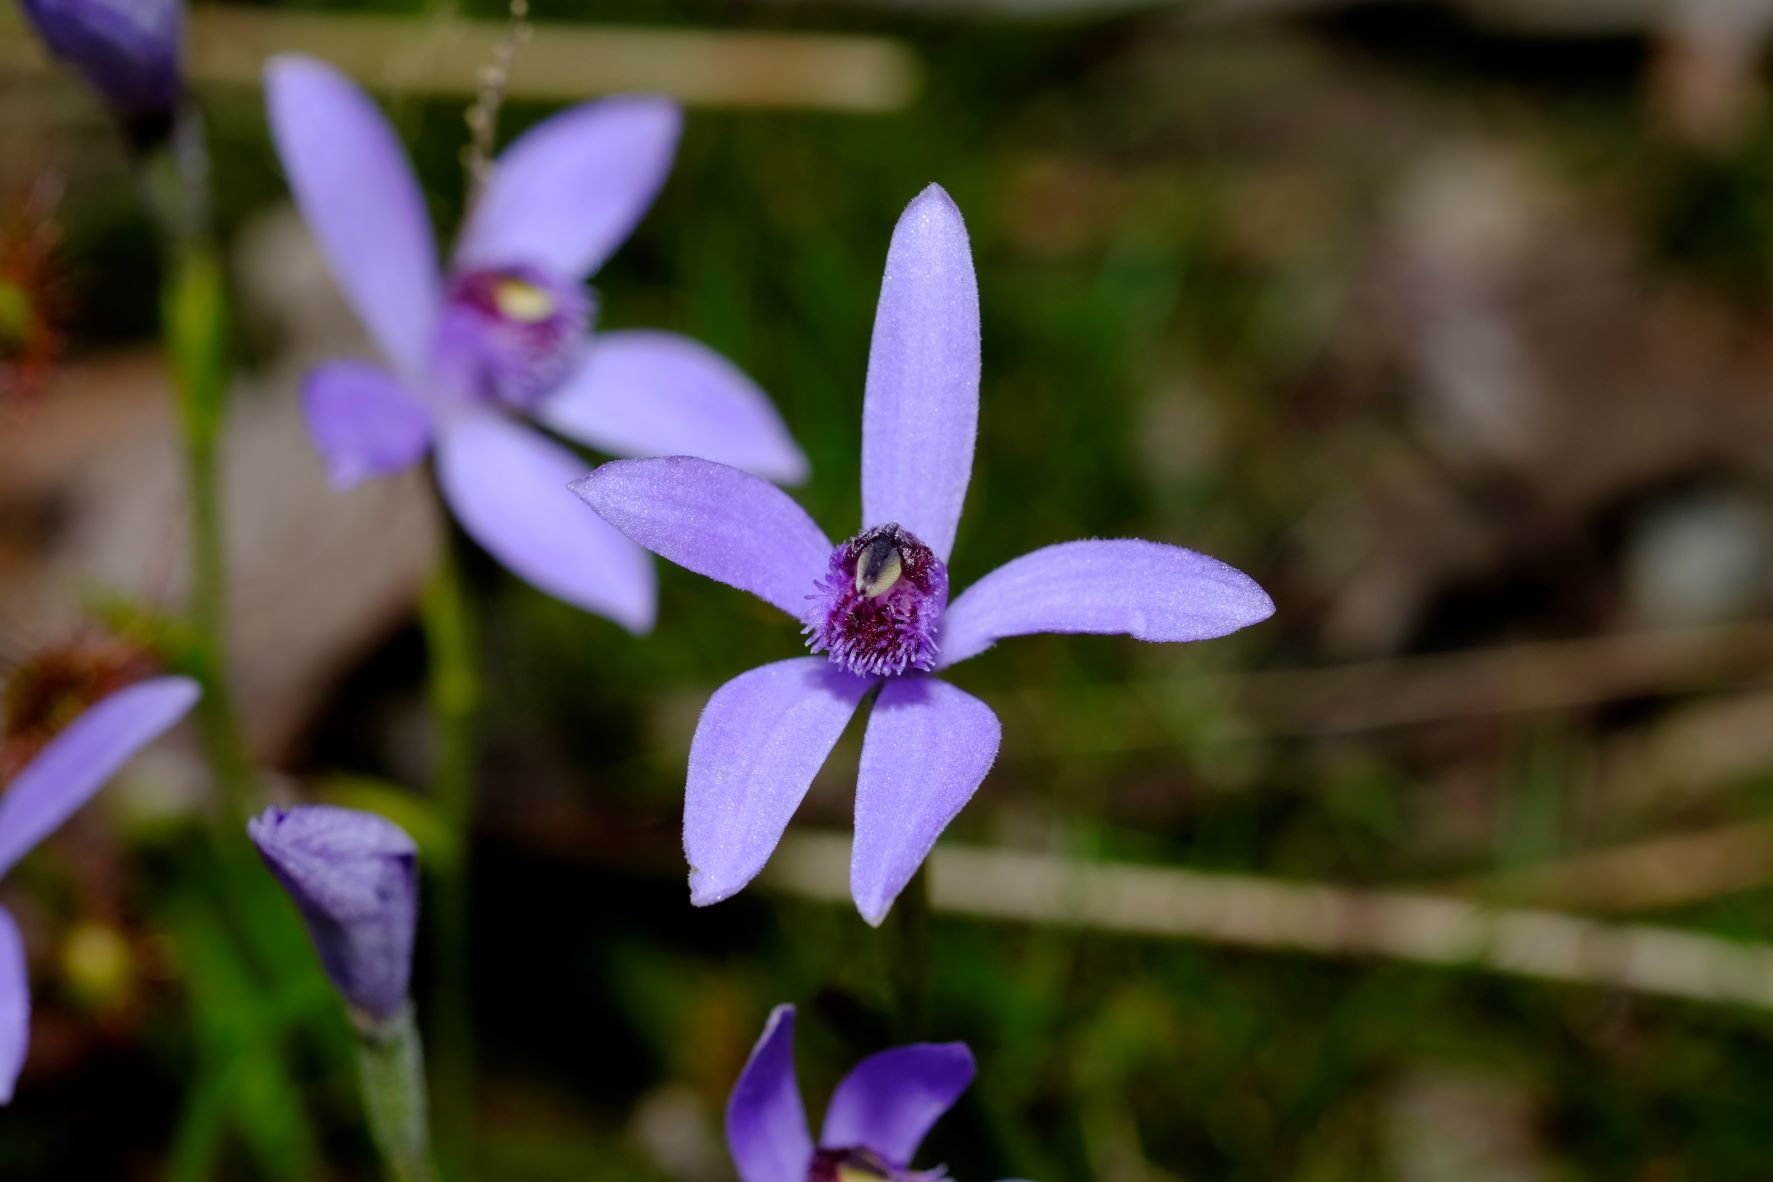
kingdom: Plantae
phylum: Tracheophyta
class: Liliopsida
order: Asparagales
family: Orchidaceae
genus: Pheladenia
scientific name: Pheladenia deformis
